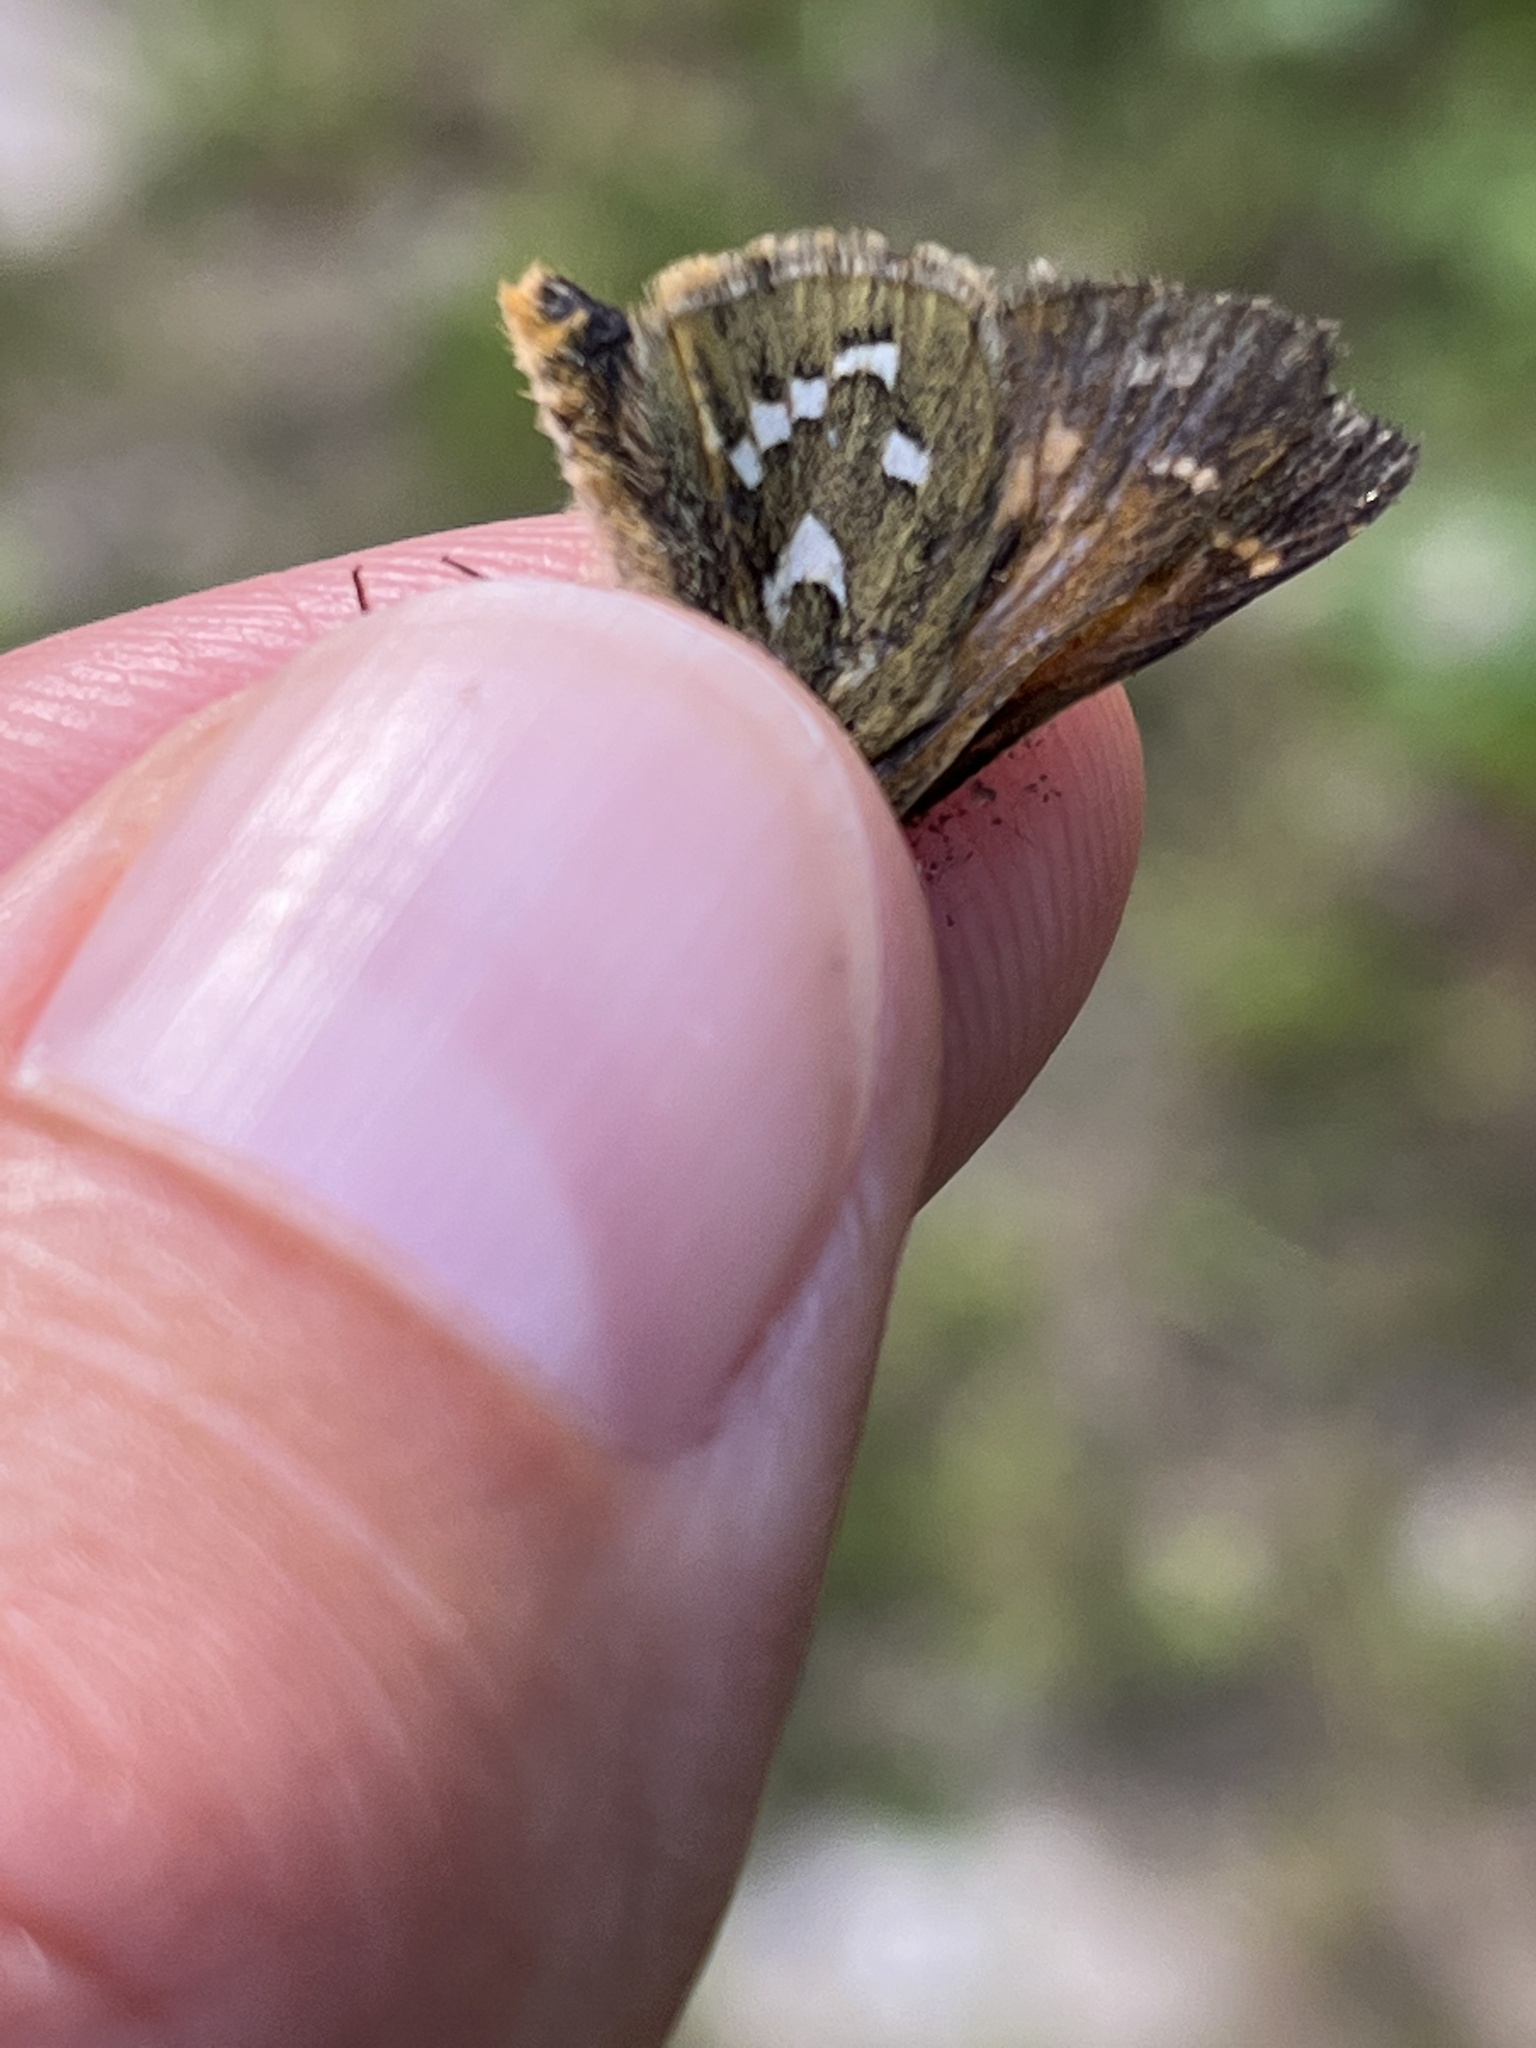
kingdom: Animalia
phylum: Arthropoda
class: Insecta
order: Lepidoptera
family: Hesperiidae
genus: Hesperia
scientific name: Hesperia comma
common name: Common branded skipper
